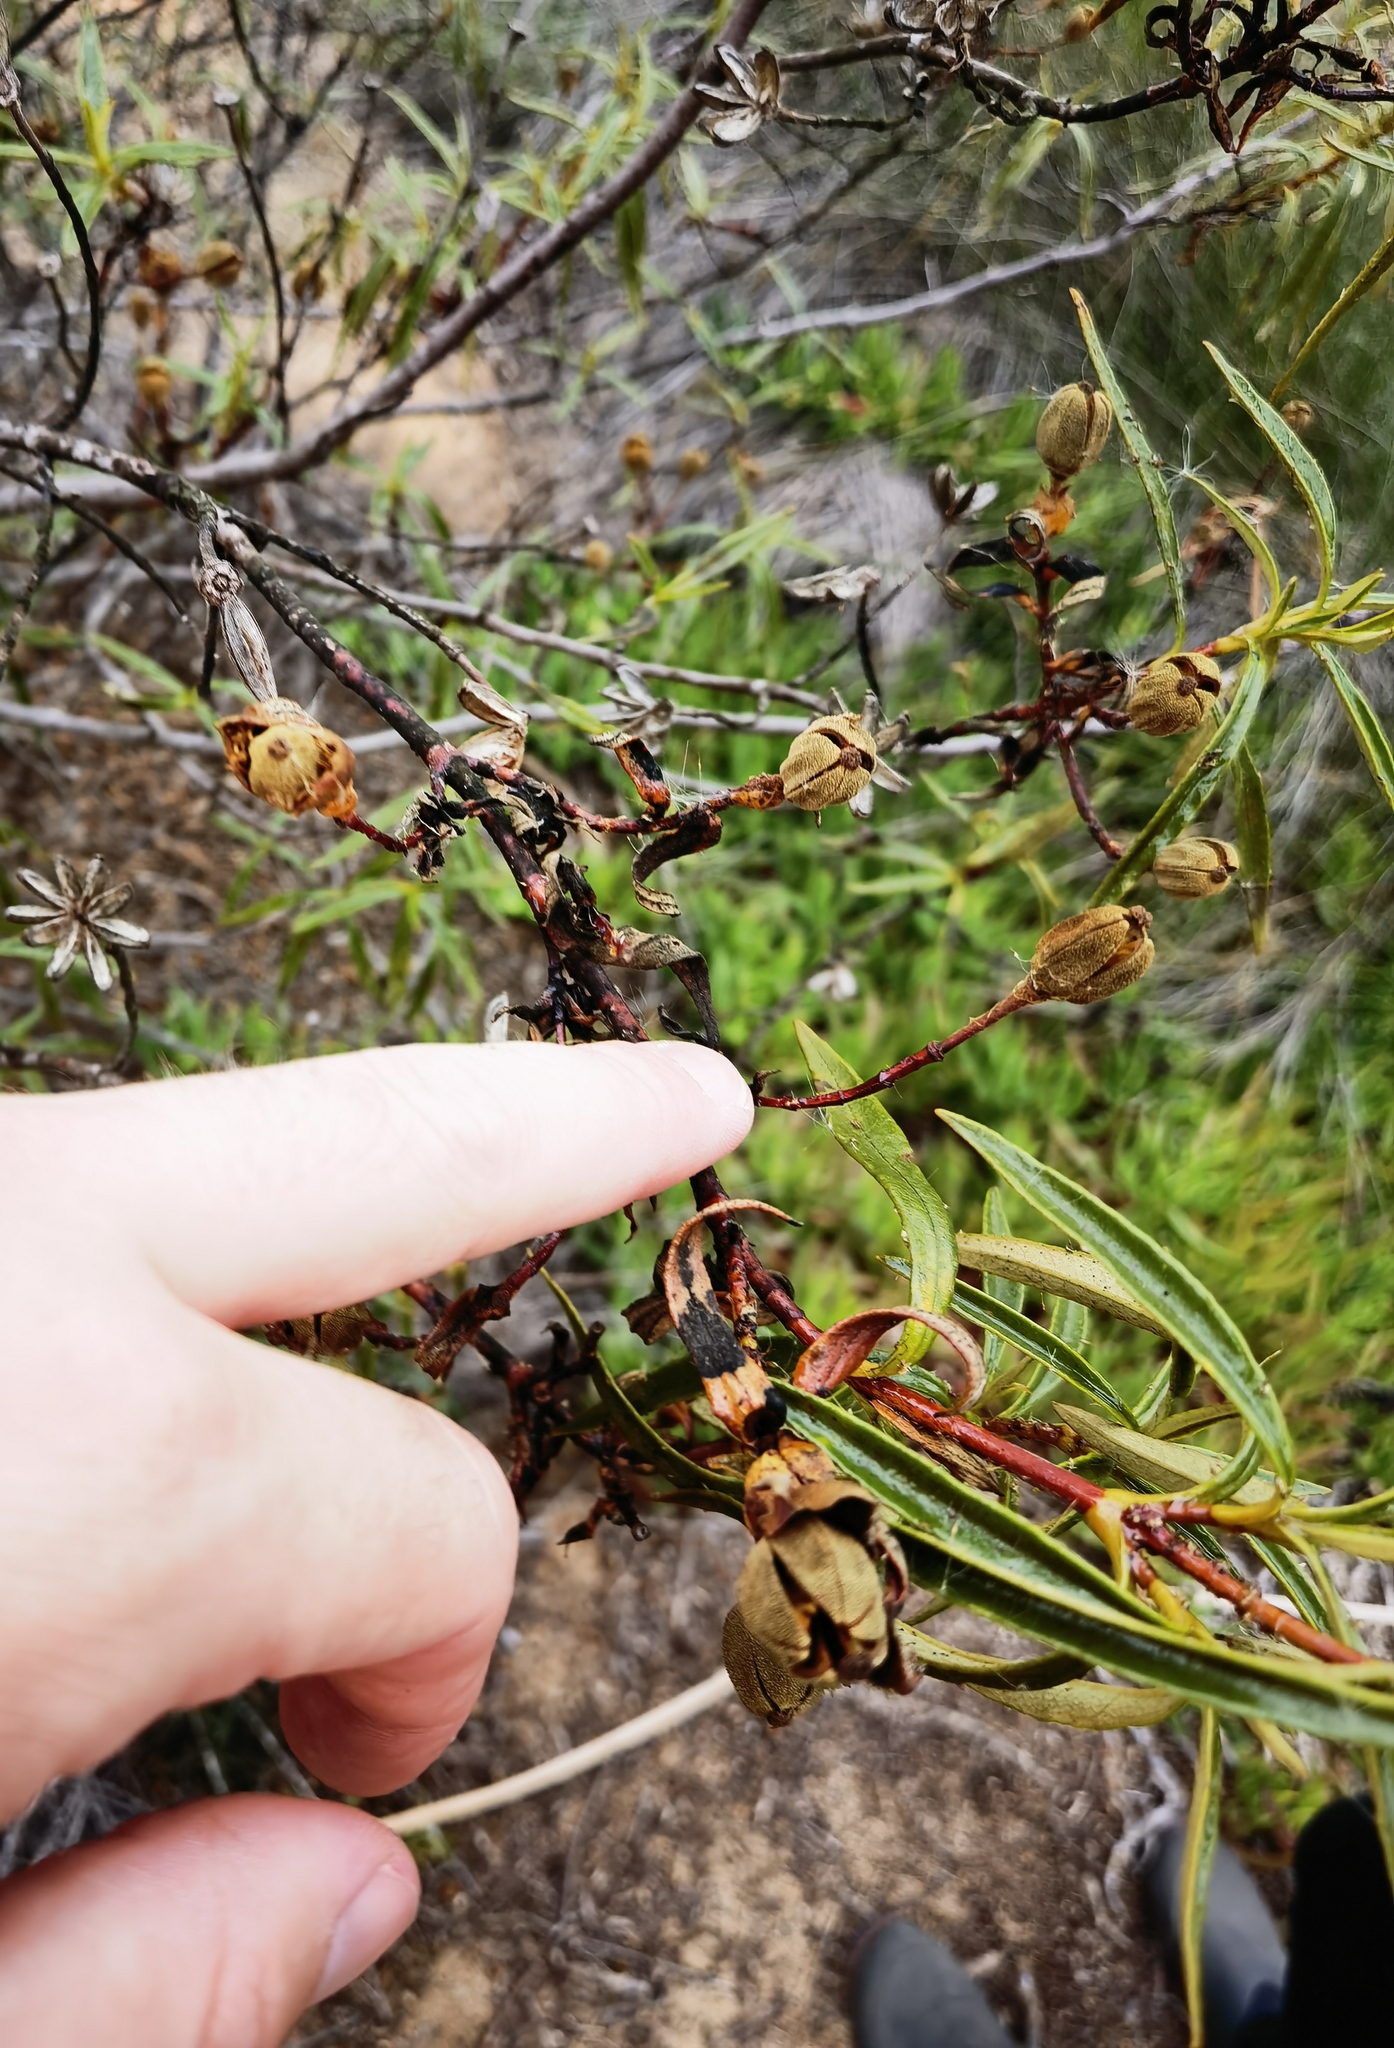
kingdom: Plantae
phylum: Tracheophyta
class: Magnoliopsida
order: Malvales
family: Cistaceae
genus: Cistus
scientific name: Cistus ladanifer
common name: Common gum cistus
